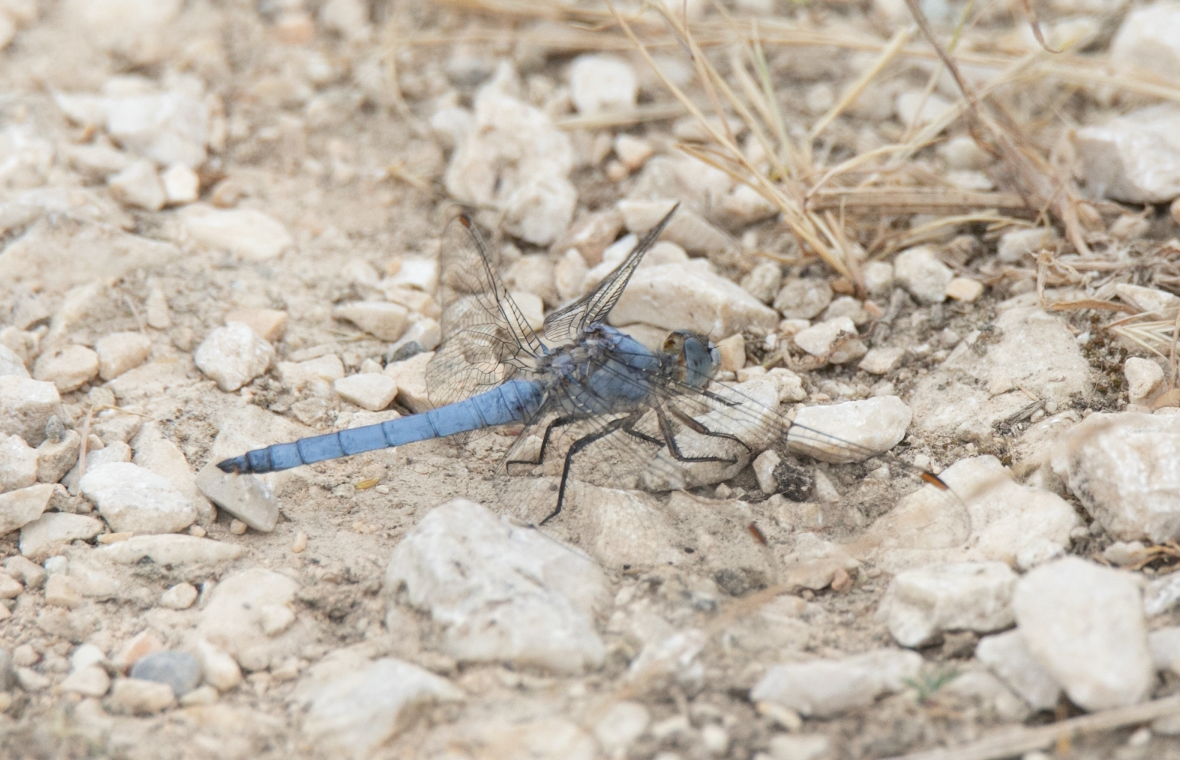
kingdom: Animalia
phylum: Arthropoda
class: Insecta
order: Odonata
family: Libellulidae
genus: Orthetrum
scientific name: Orthetrum brunneum
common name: Southern skimmer
